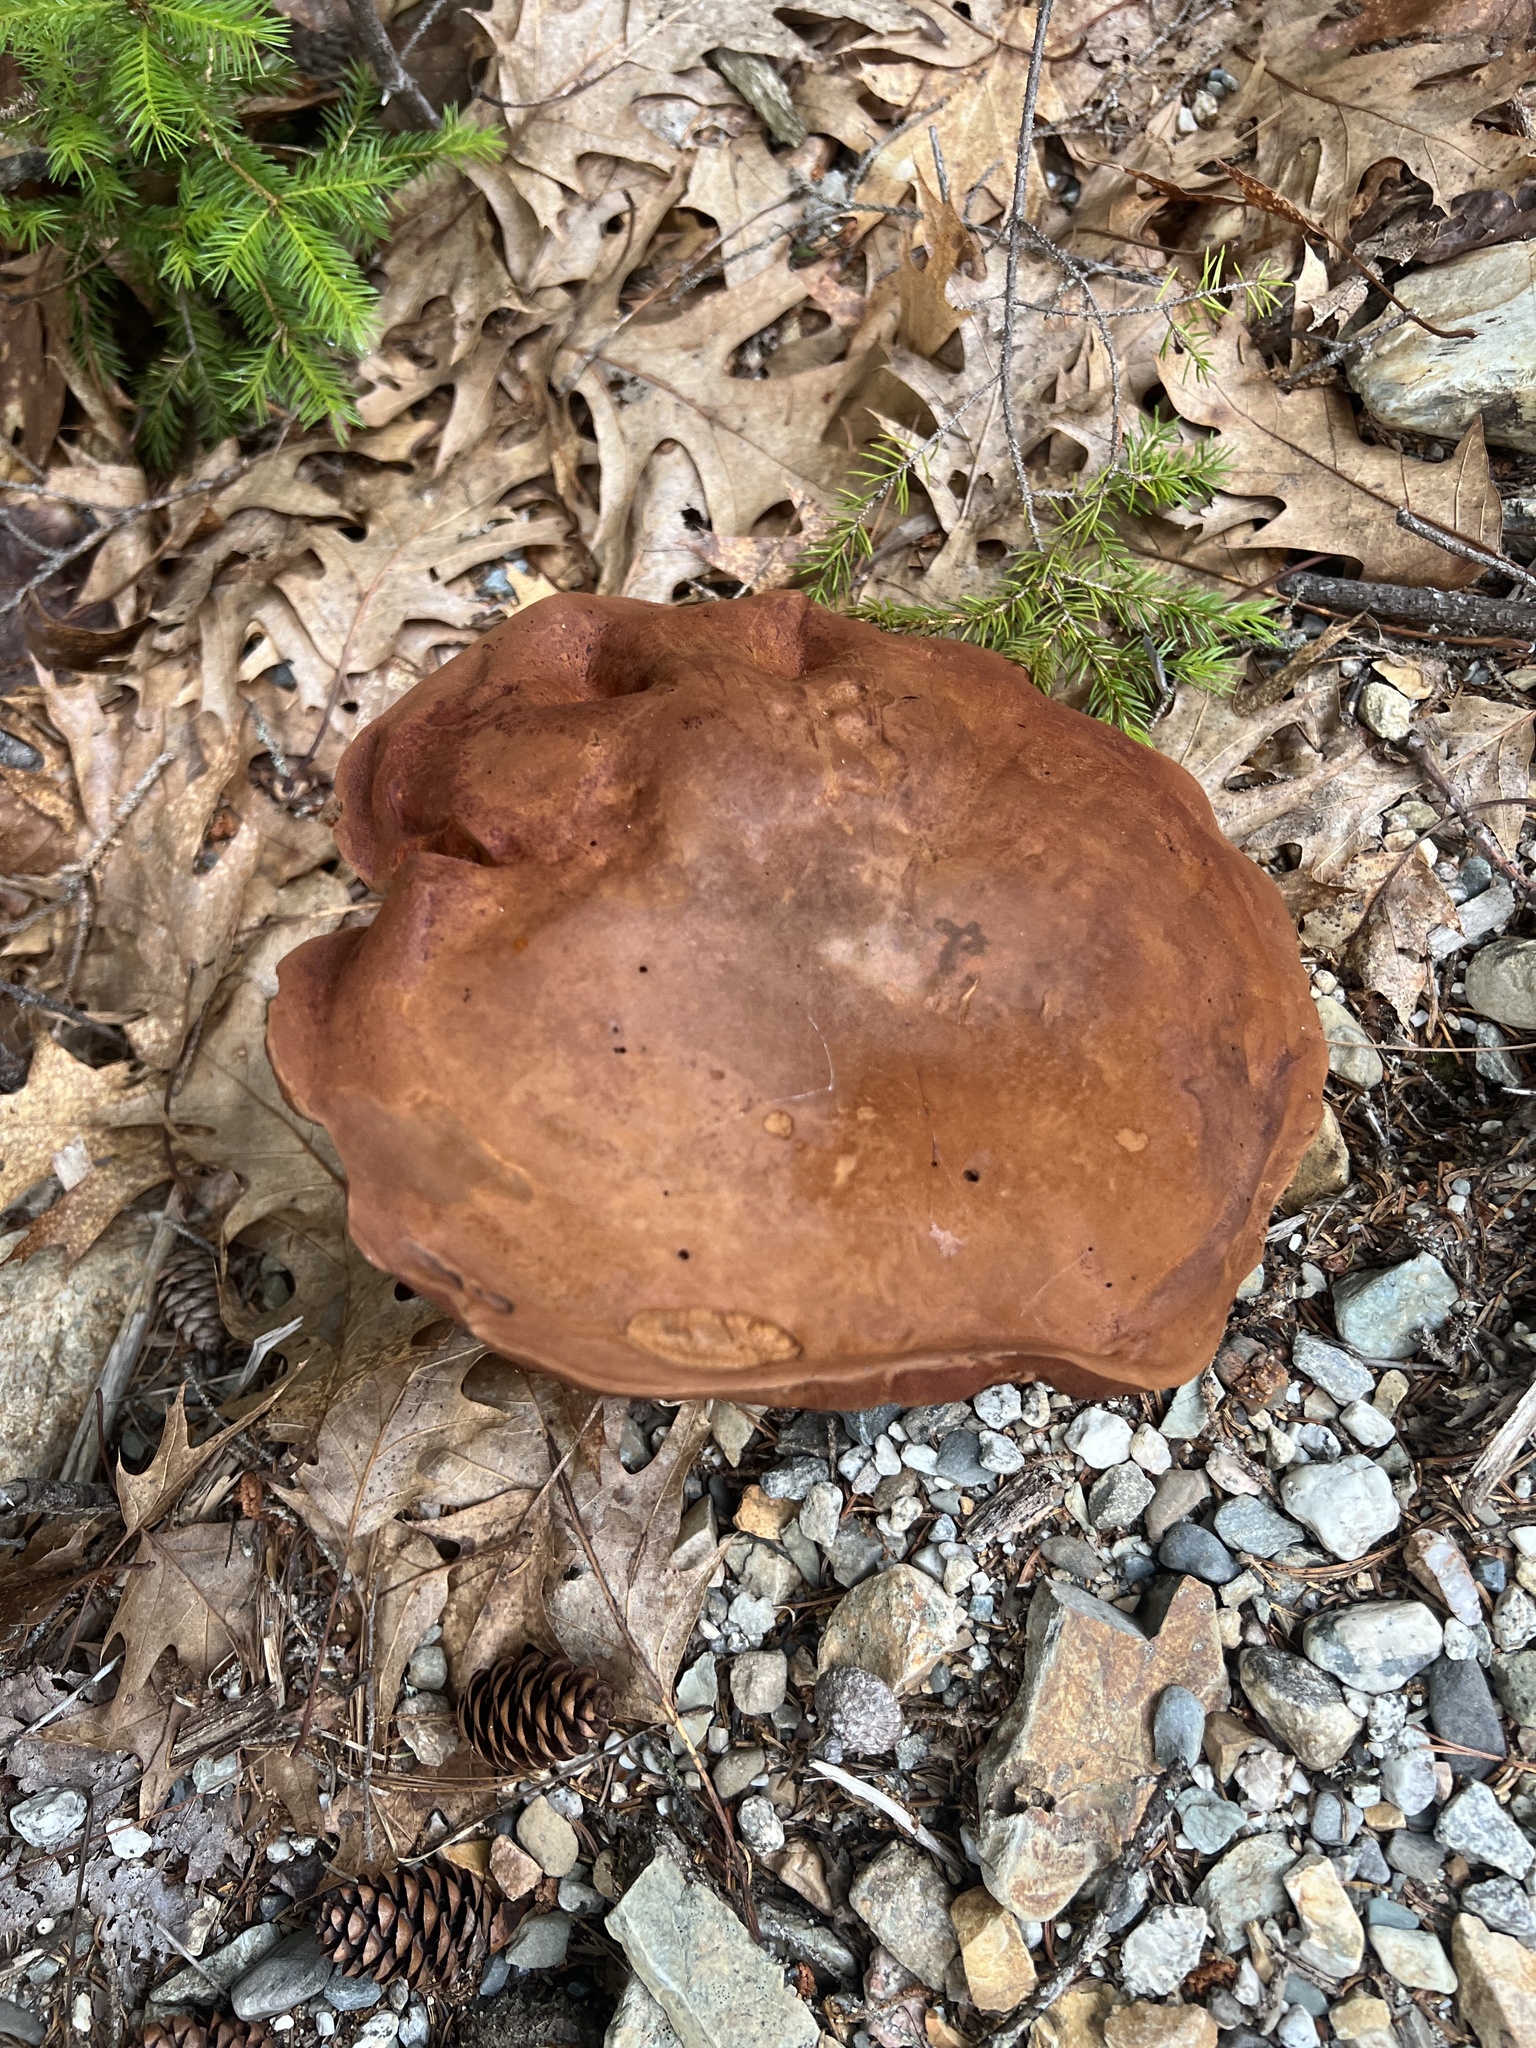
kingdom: Fungi
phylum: Basidiomycota
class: Agaricomycetes
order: Boletales
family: Boletaceae
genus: Sutorius
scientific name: Sutorius eximius
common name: Lilac-brown bolete
